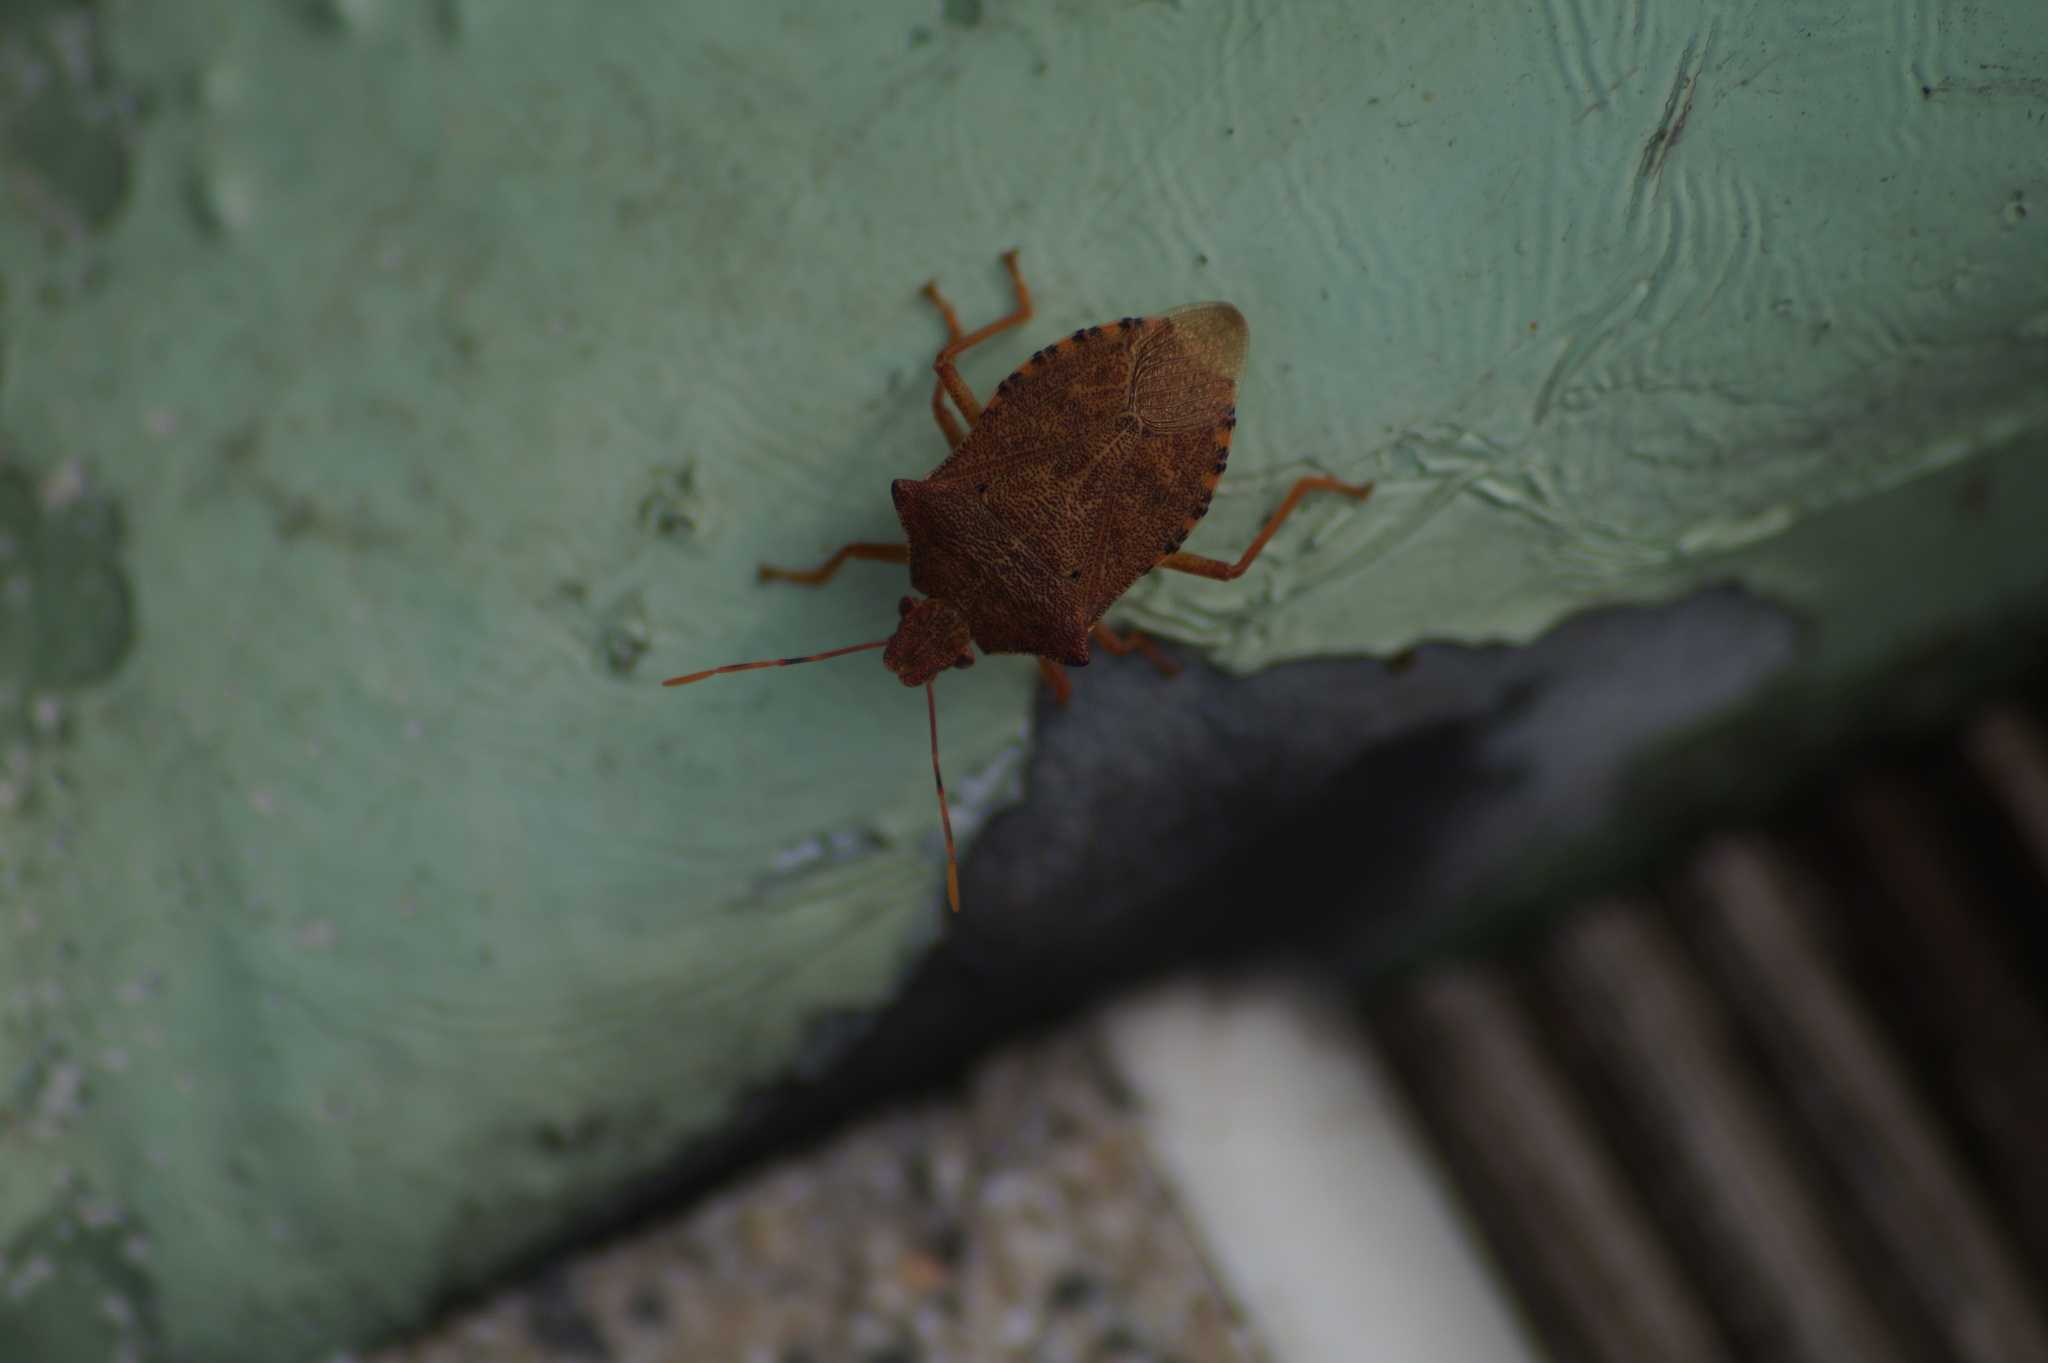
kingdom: Animalia
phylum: Arthropoda
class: Insecta
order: Hemiptera
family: Pentatomidae
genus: Arma
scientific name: Arma custos
